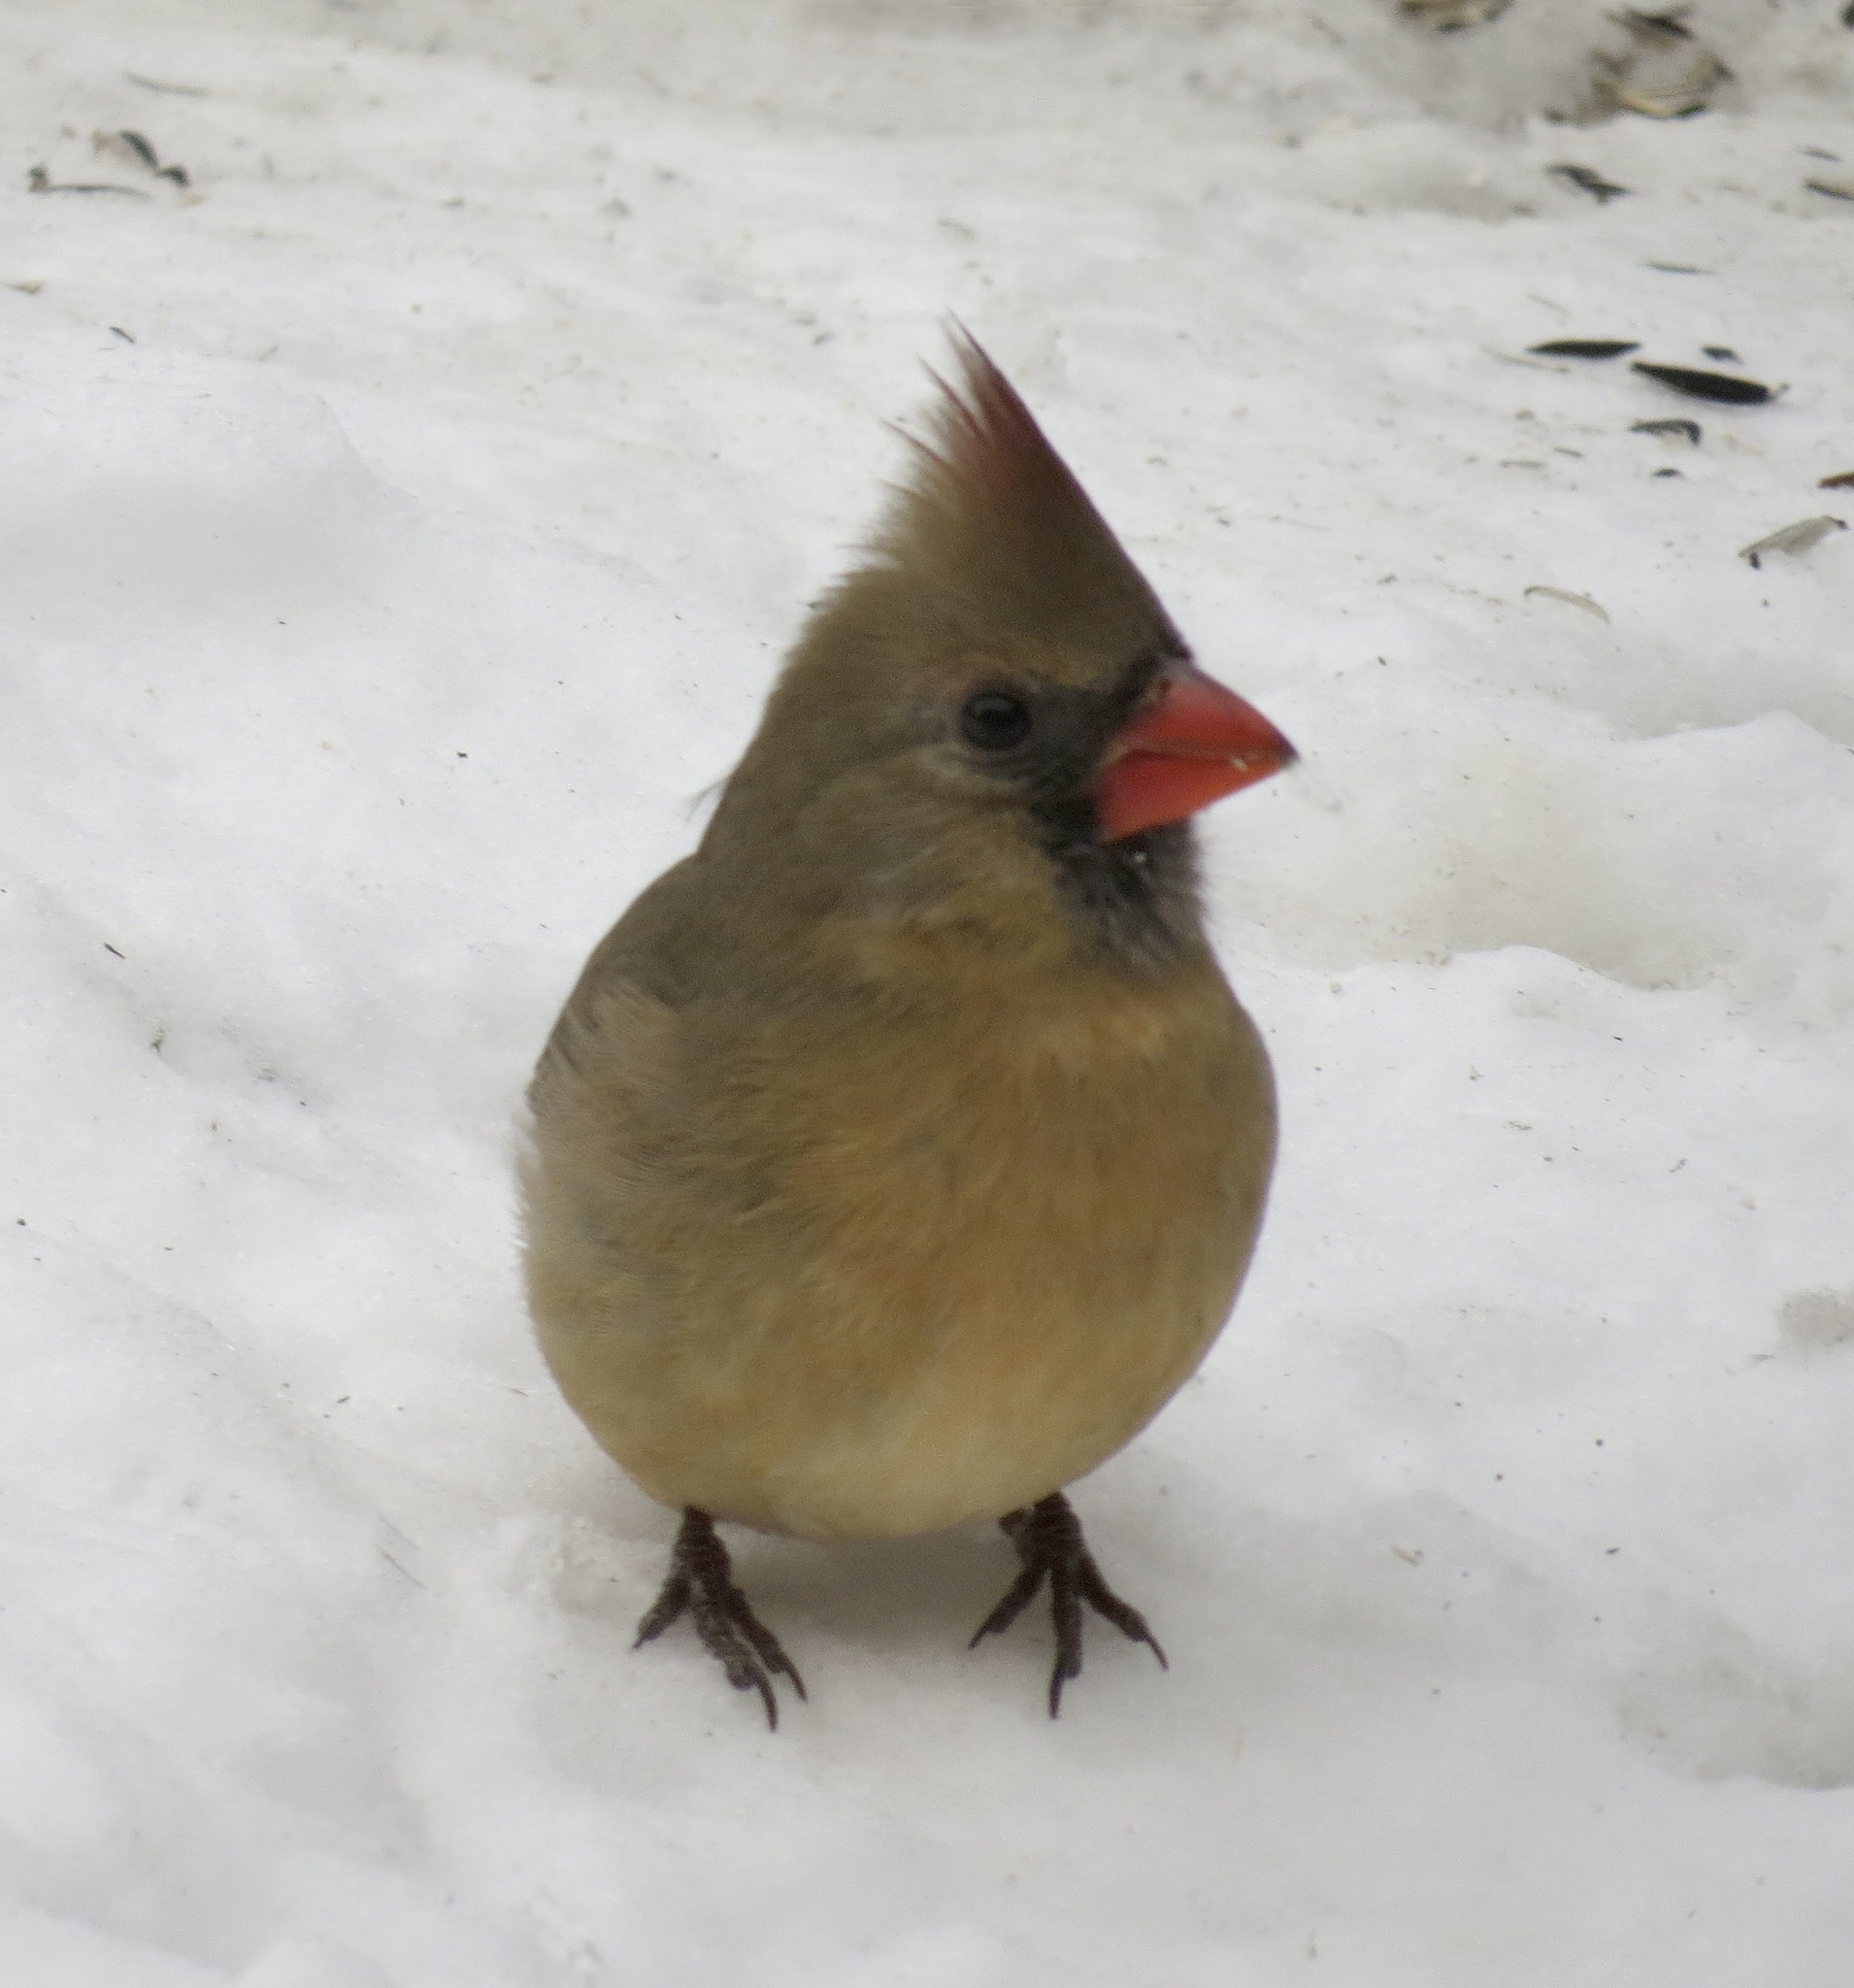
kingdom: Animalia
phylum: Chordata
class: Aves
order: Passeriformes
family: Cardinalidae
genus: Cardinalis
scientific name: Cardinalis cardinalis
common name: Northern cardinal
